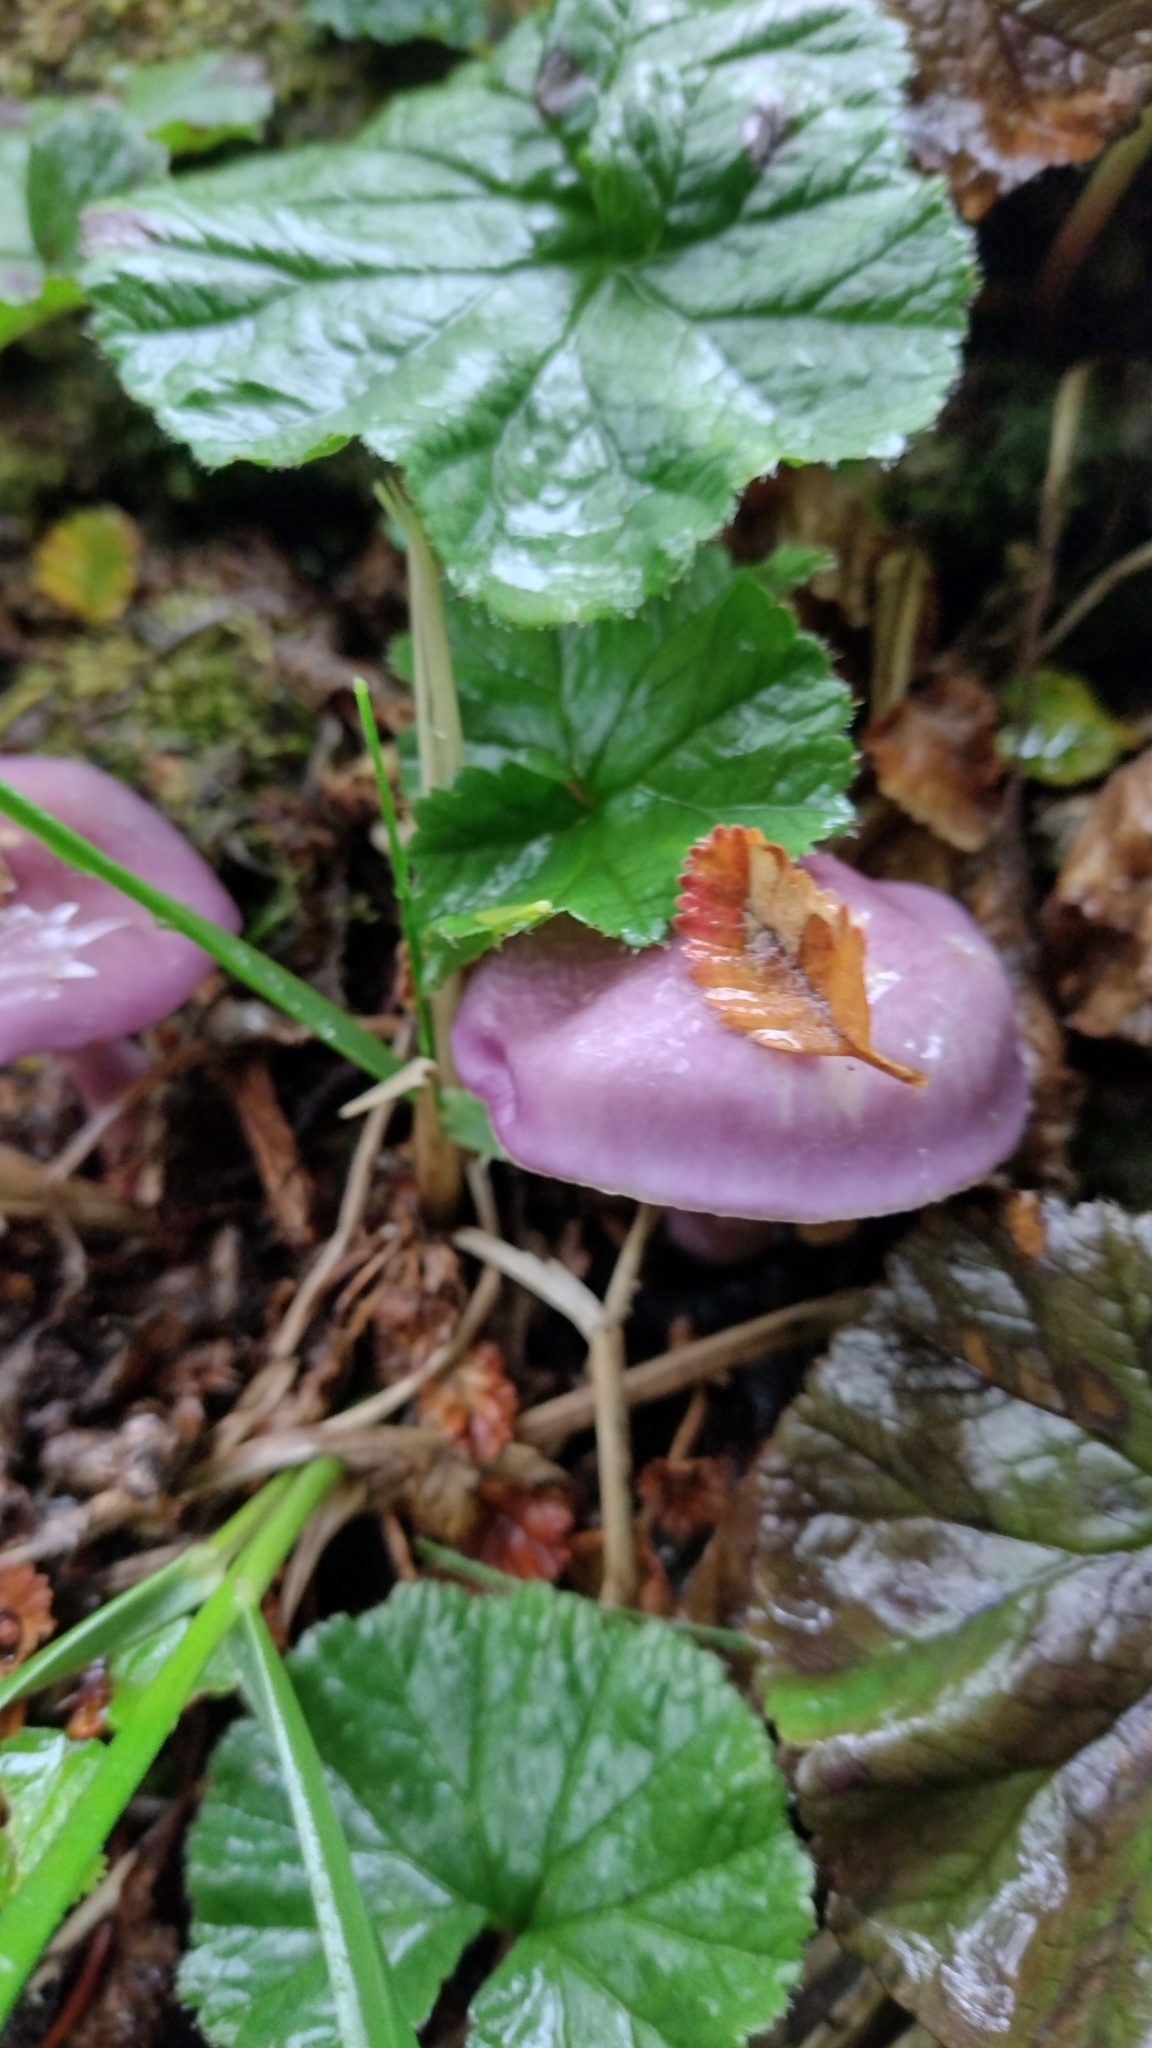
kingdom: Fungi
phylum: Basidiomycota
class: Agaricomycetes
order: Agaricales
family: Cortinariaceae
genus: Cortinarius
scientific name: Cortinarius magellanicus
